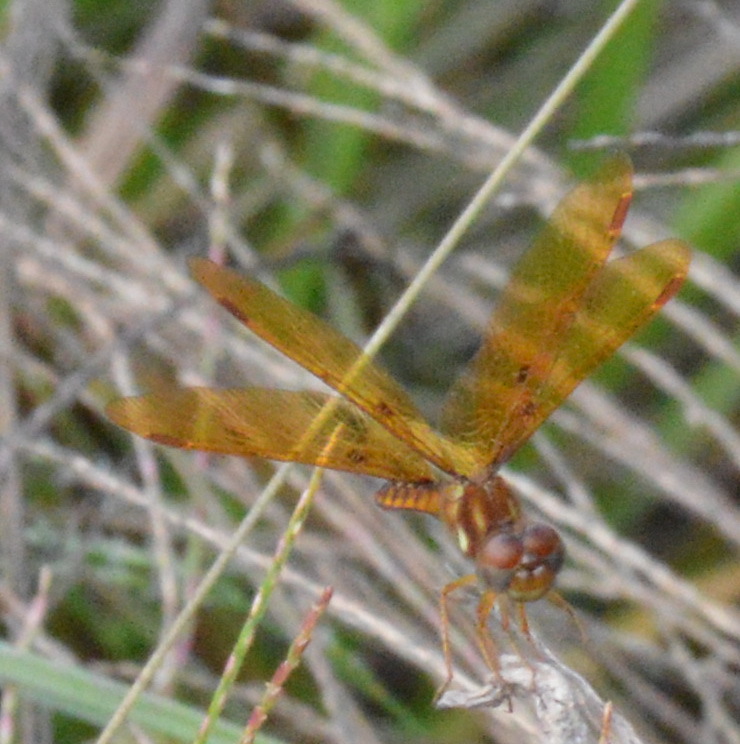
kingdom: Animalia
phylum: Arthropoda
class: Insecta
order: Odonata
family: Libellulidae
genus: Perithemis
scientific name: Perithemis tenera
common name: Eastern amberwing
